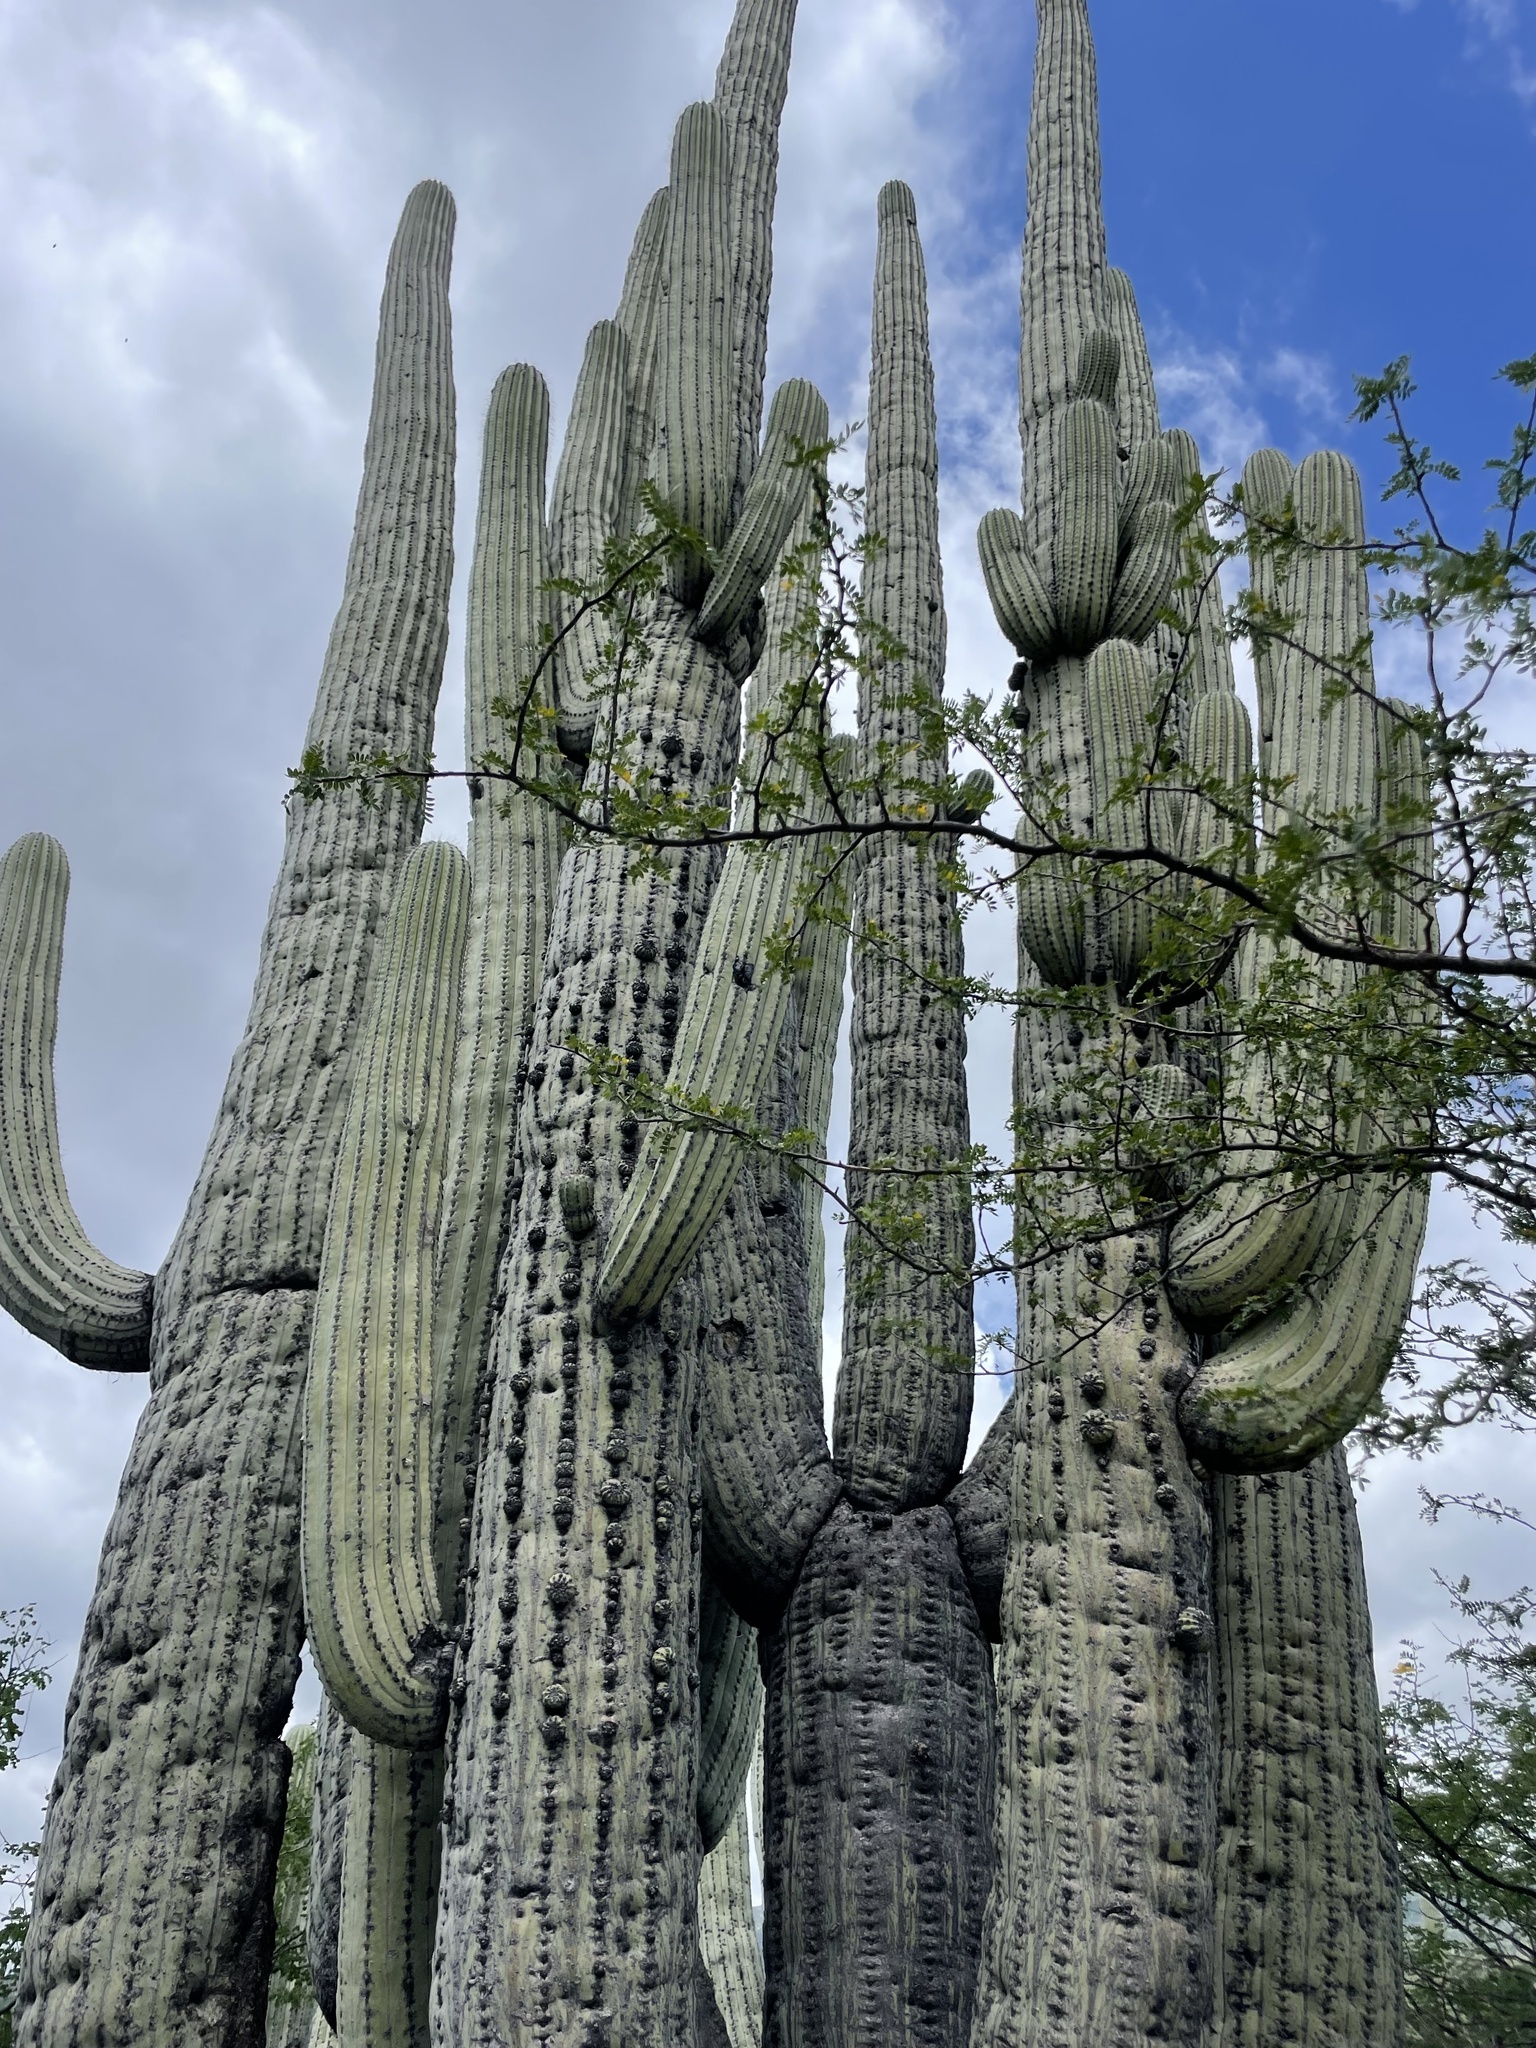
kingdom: Plantae
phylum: Tracheophyta
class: Magnoliopsida
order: Caryophyllales
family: Cactaceae
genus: Cephalocereus
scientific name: Cephalocereus tetetzo
